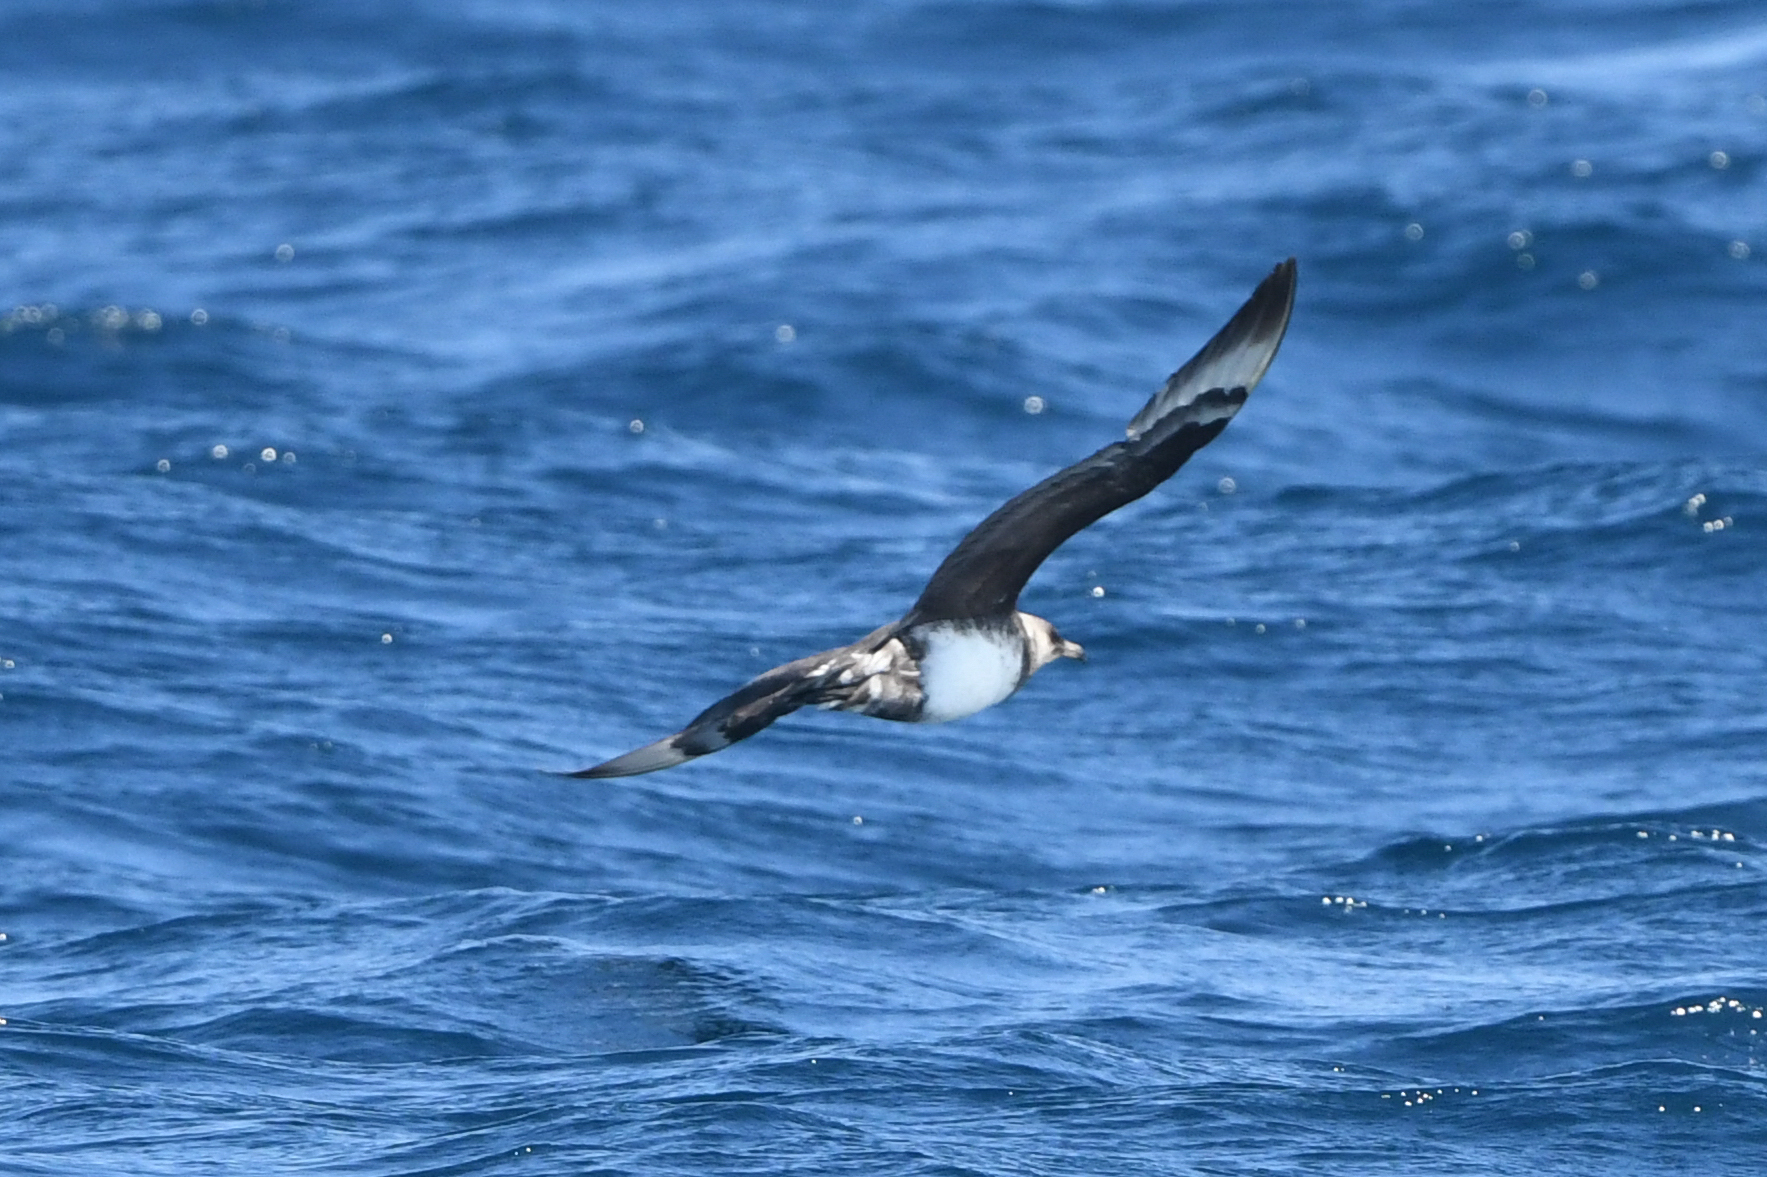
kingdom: Animalia
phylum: Chordata
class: Aves
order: Charadriiformes
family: Stercorariidae
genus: Stercorarius
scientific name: Stercorarius pomarinus
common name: Pomarine jaeger
